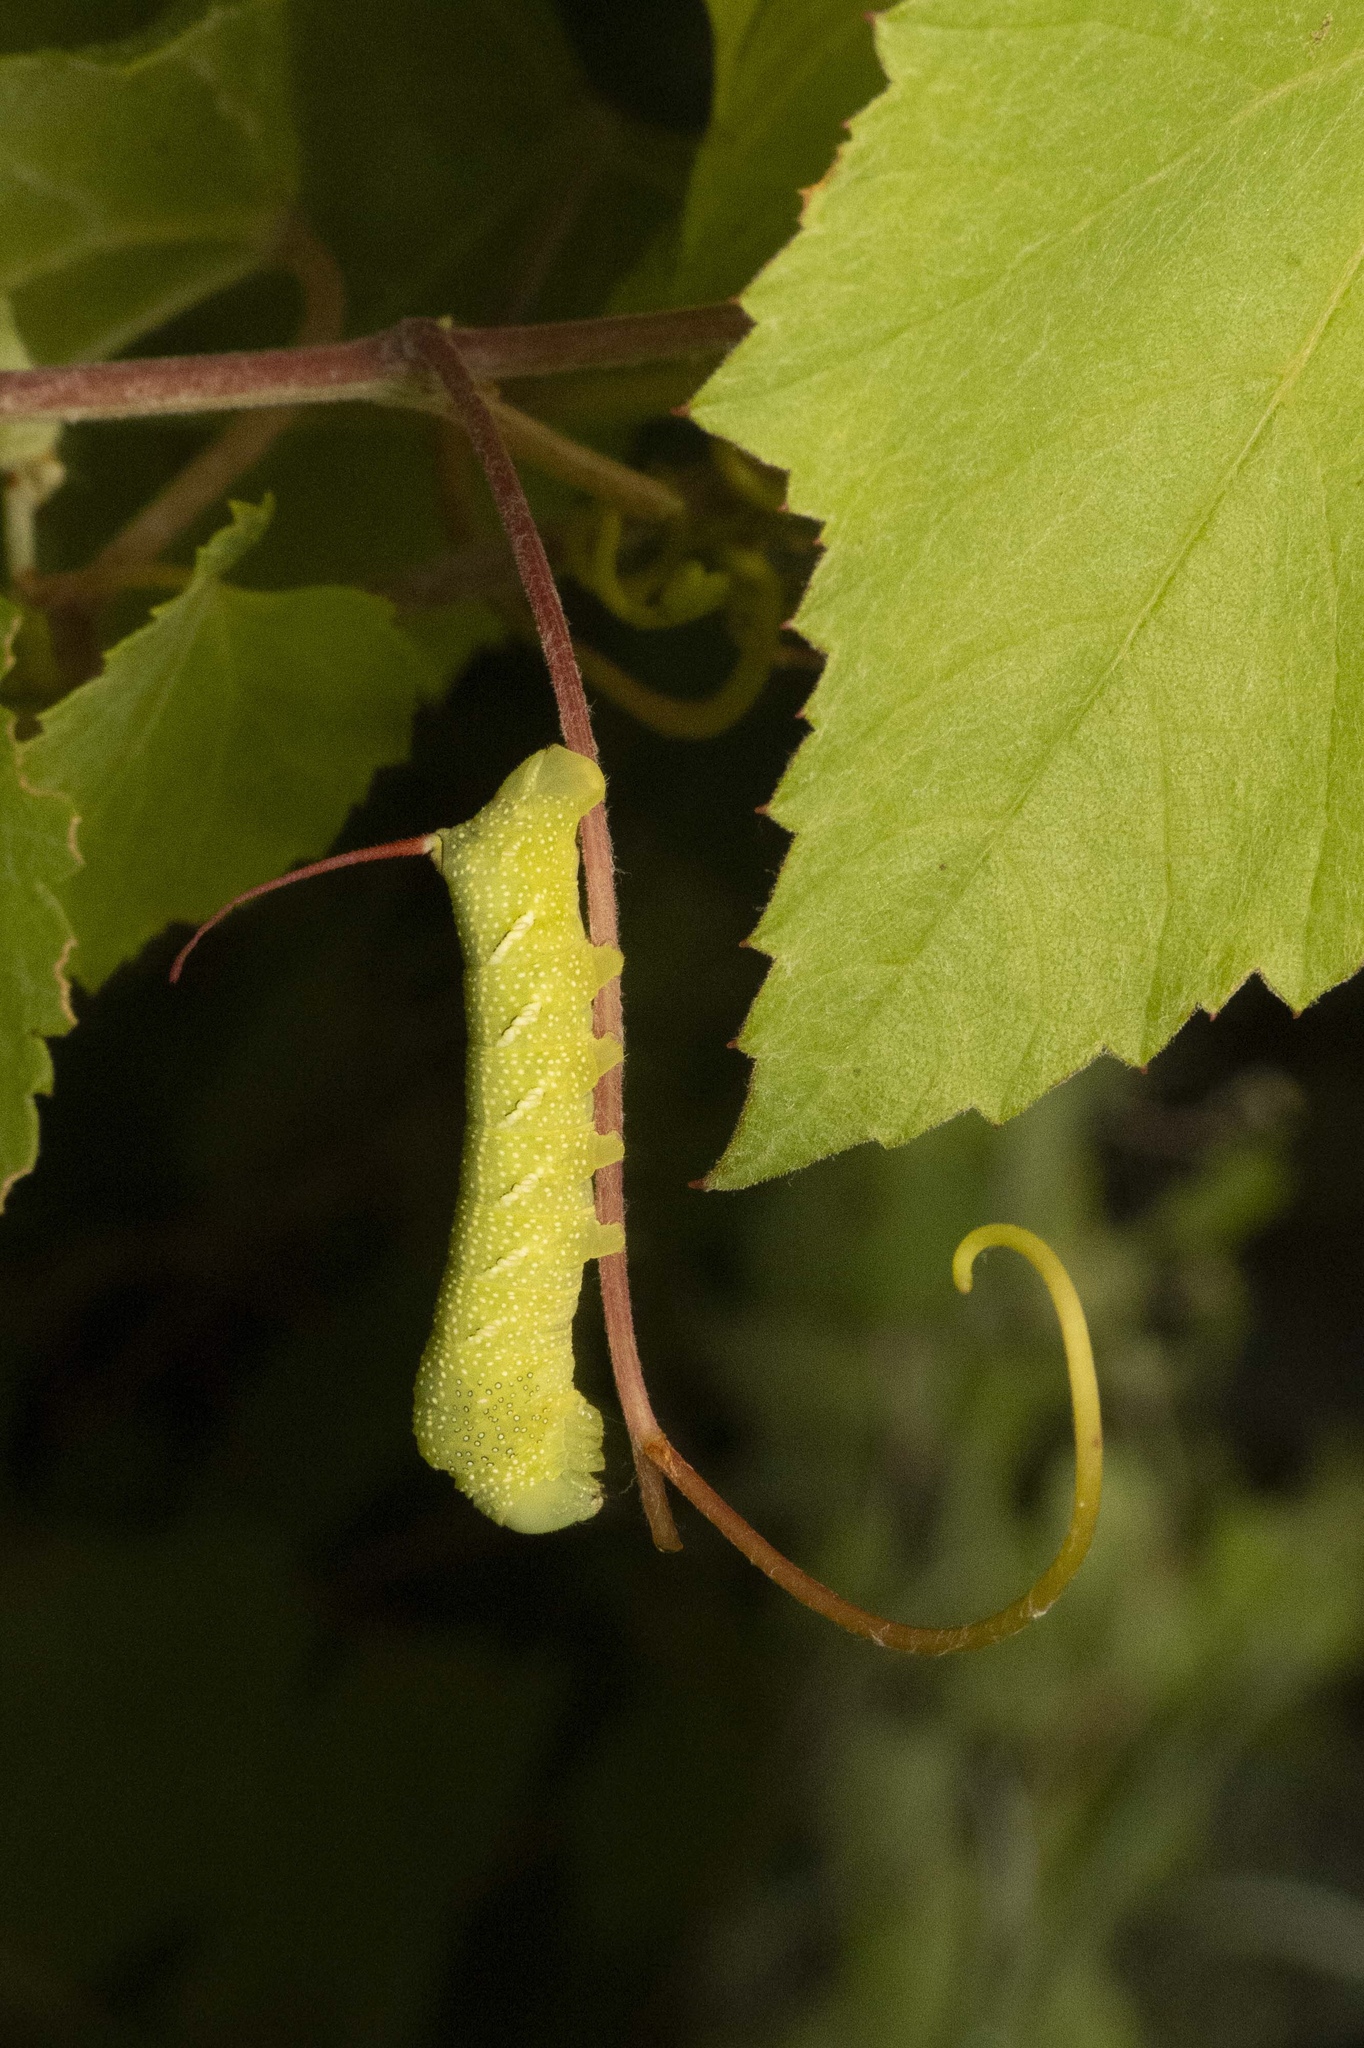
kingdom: Animalia
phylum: Arthropoda
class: Insecta
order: Lepidoptera
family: Sphingidae
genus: Eumorpha
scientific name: Eumorpha achemon
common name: Achemon sphinx
